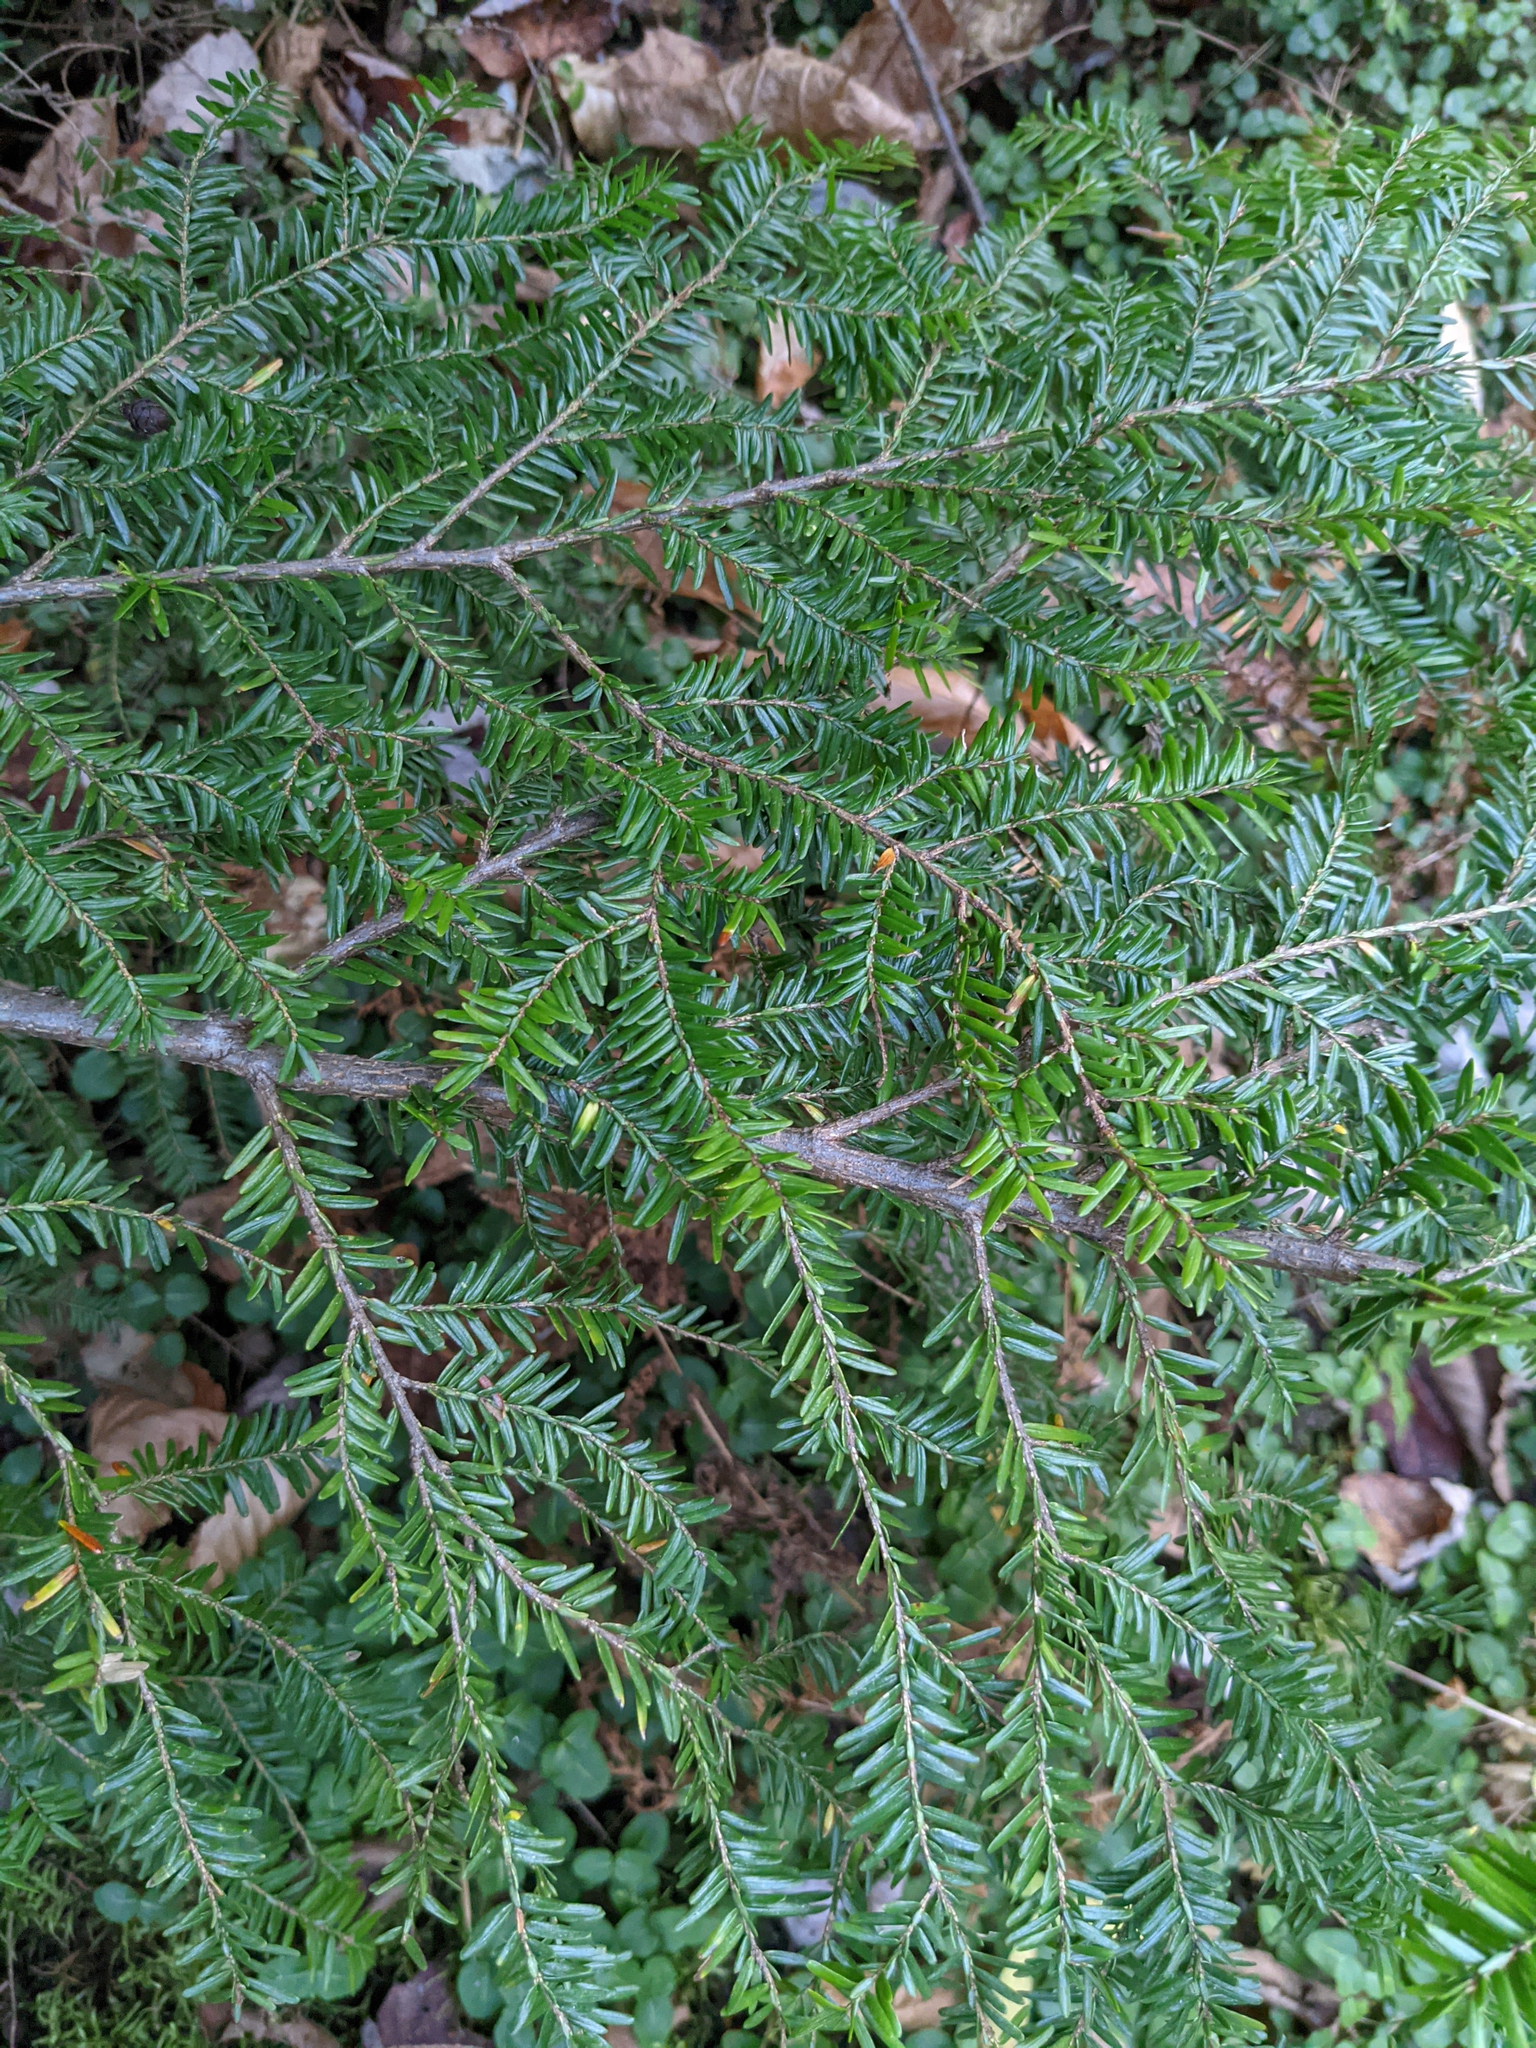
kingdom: Plantae
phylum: Tracheophyta
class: Pinopsida
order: Pinales
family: Pinaceae
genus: Tsuga
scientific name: Tsuga canadensis
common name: Eastern hemlock
